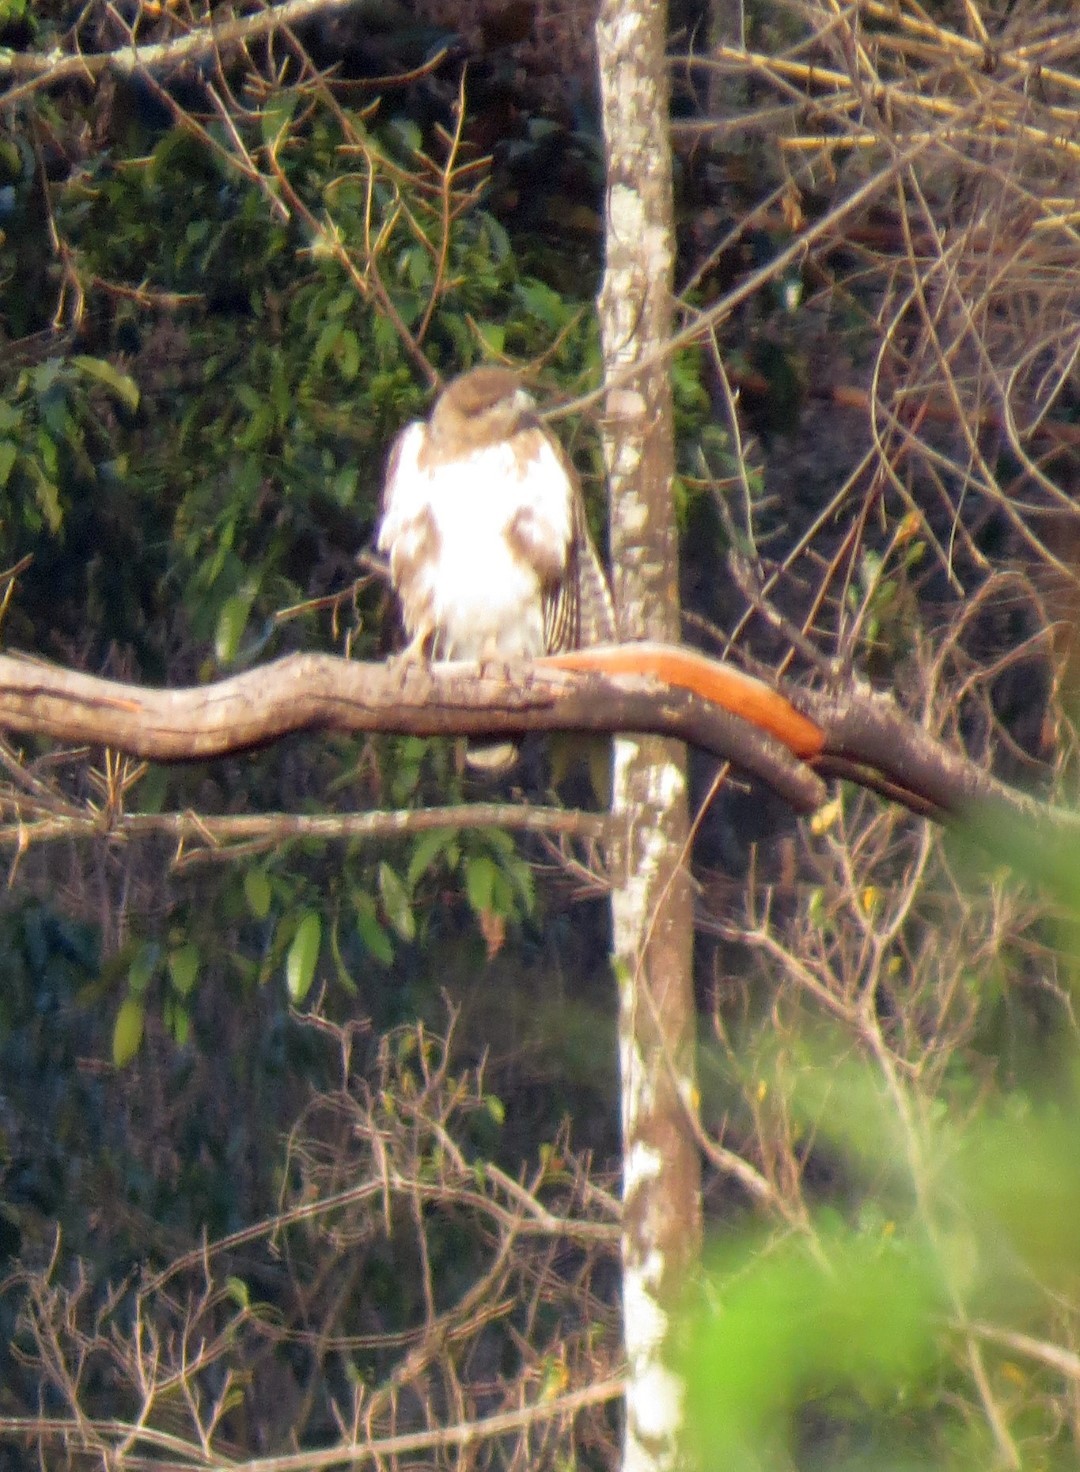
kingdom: Animalia
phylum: Chordata
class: Aves
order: Accipitriformes
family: Accipitridae
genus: Aviceda
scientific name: Aviceda madagascariensis
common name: Madagascar cuckoo-hawk
